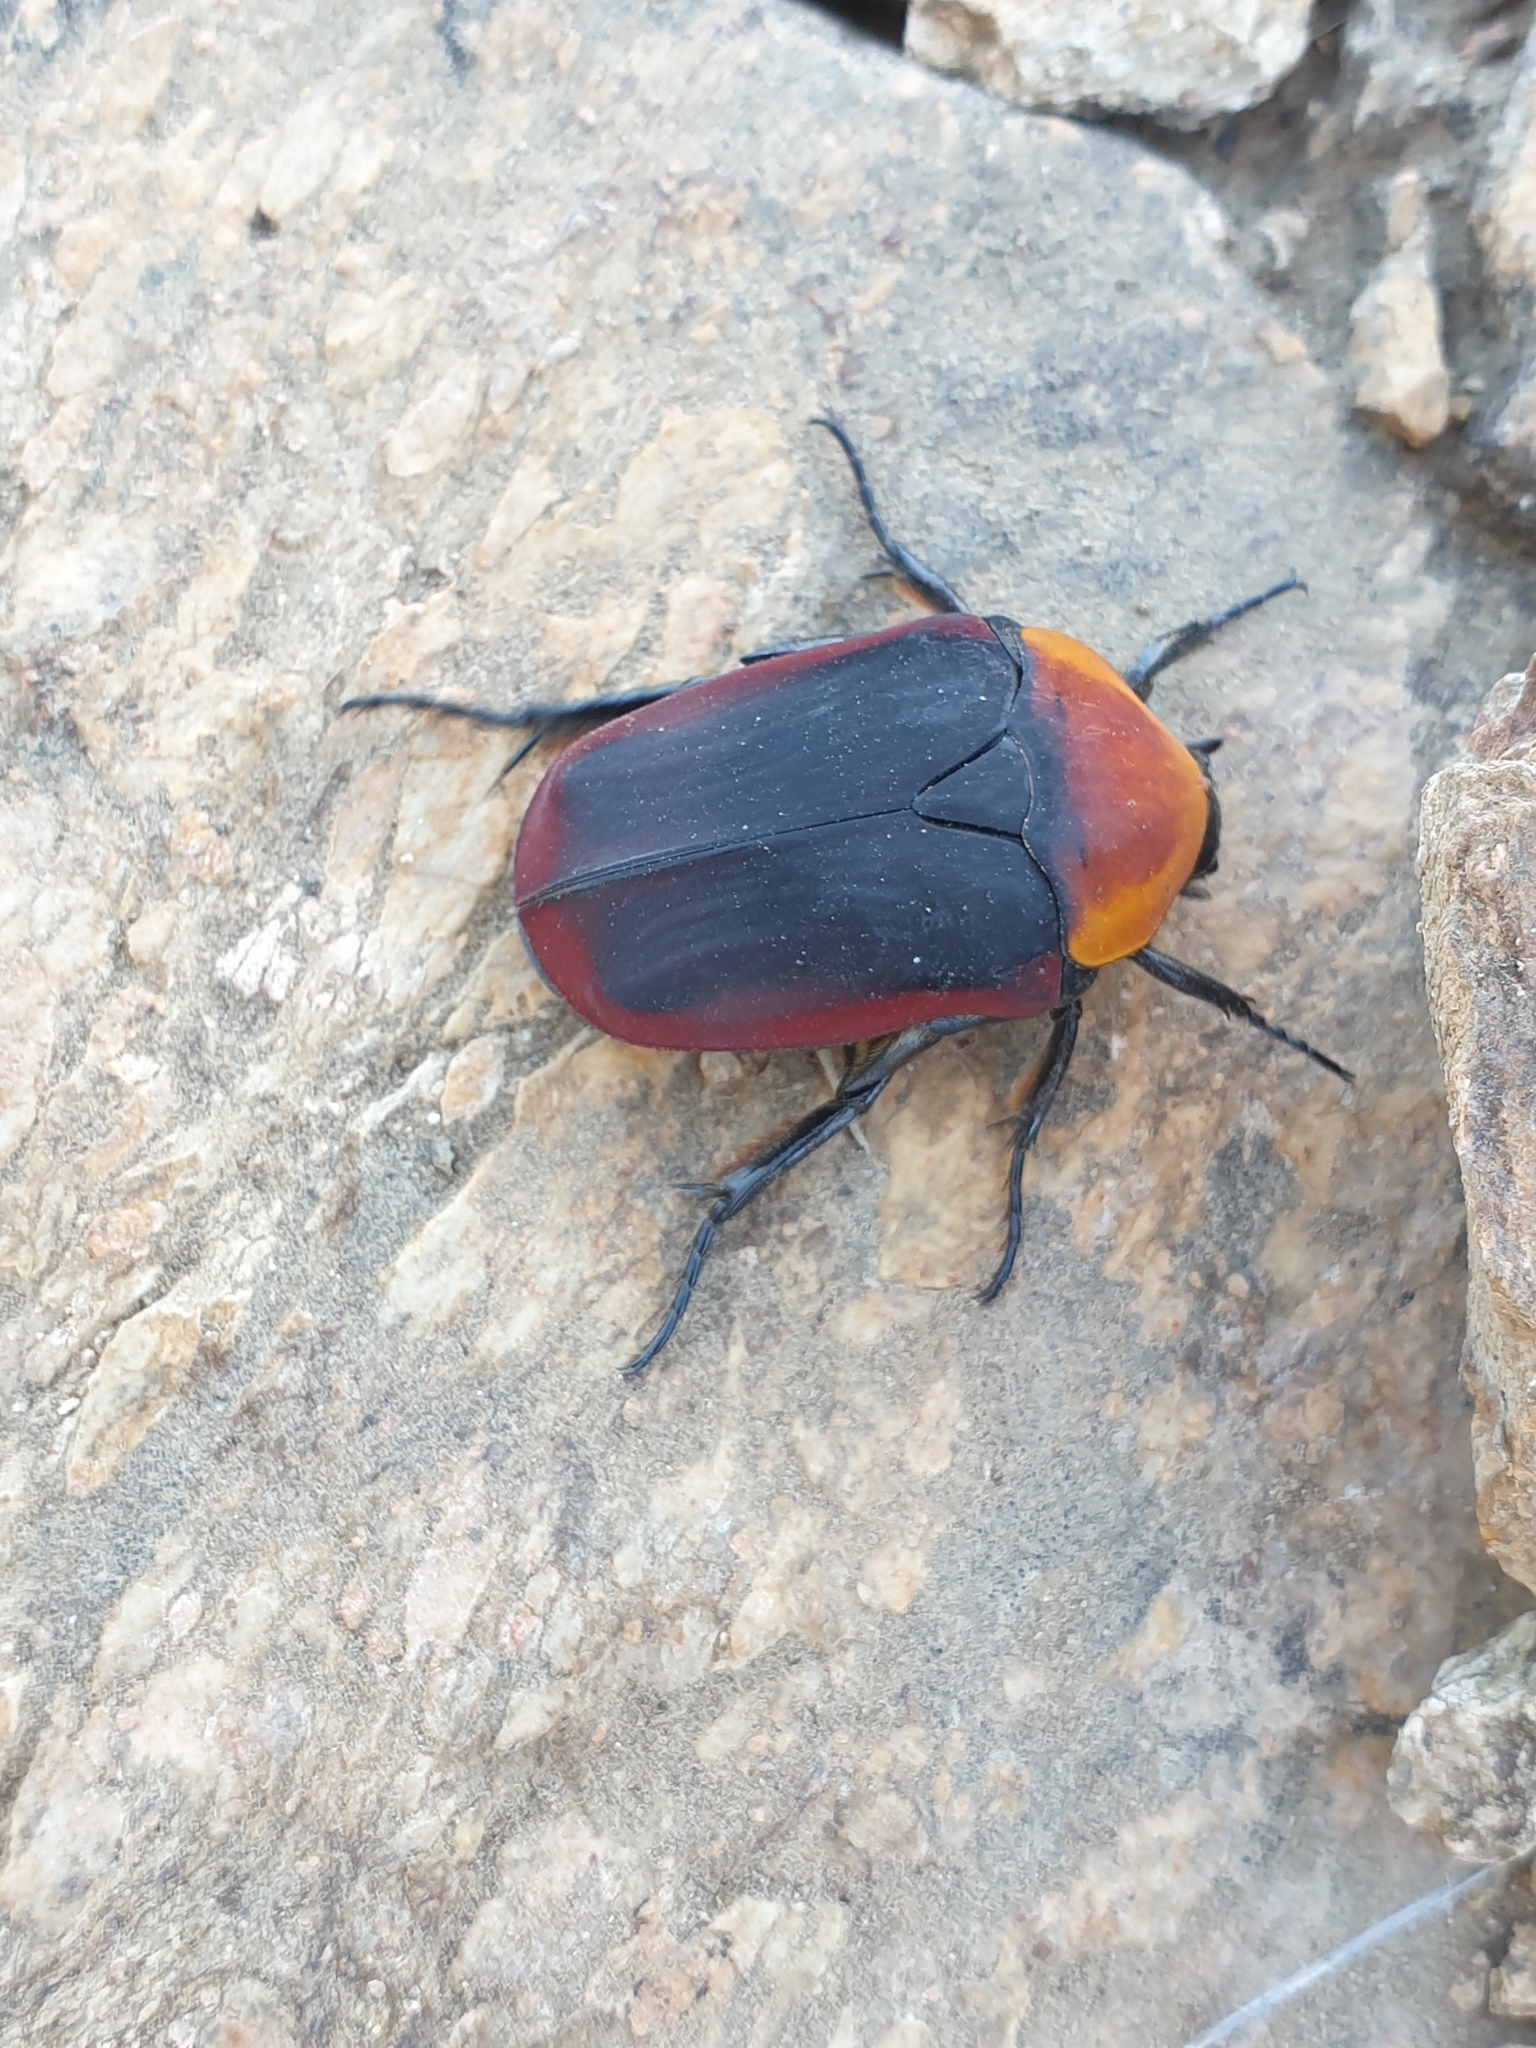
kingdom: Animalia
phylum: Arthropoda
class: Insecta
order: Coleoptera
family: Scarabaeidae
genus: Pachnoda
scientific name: Pachnoda thoracica
